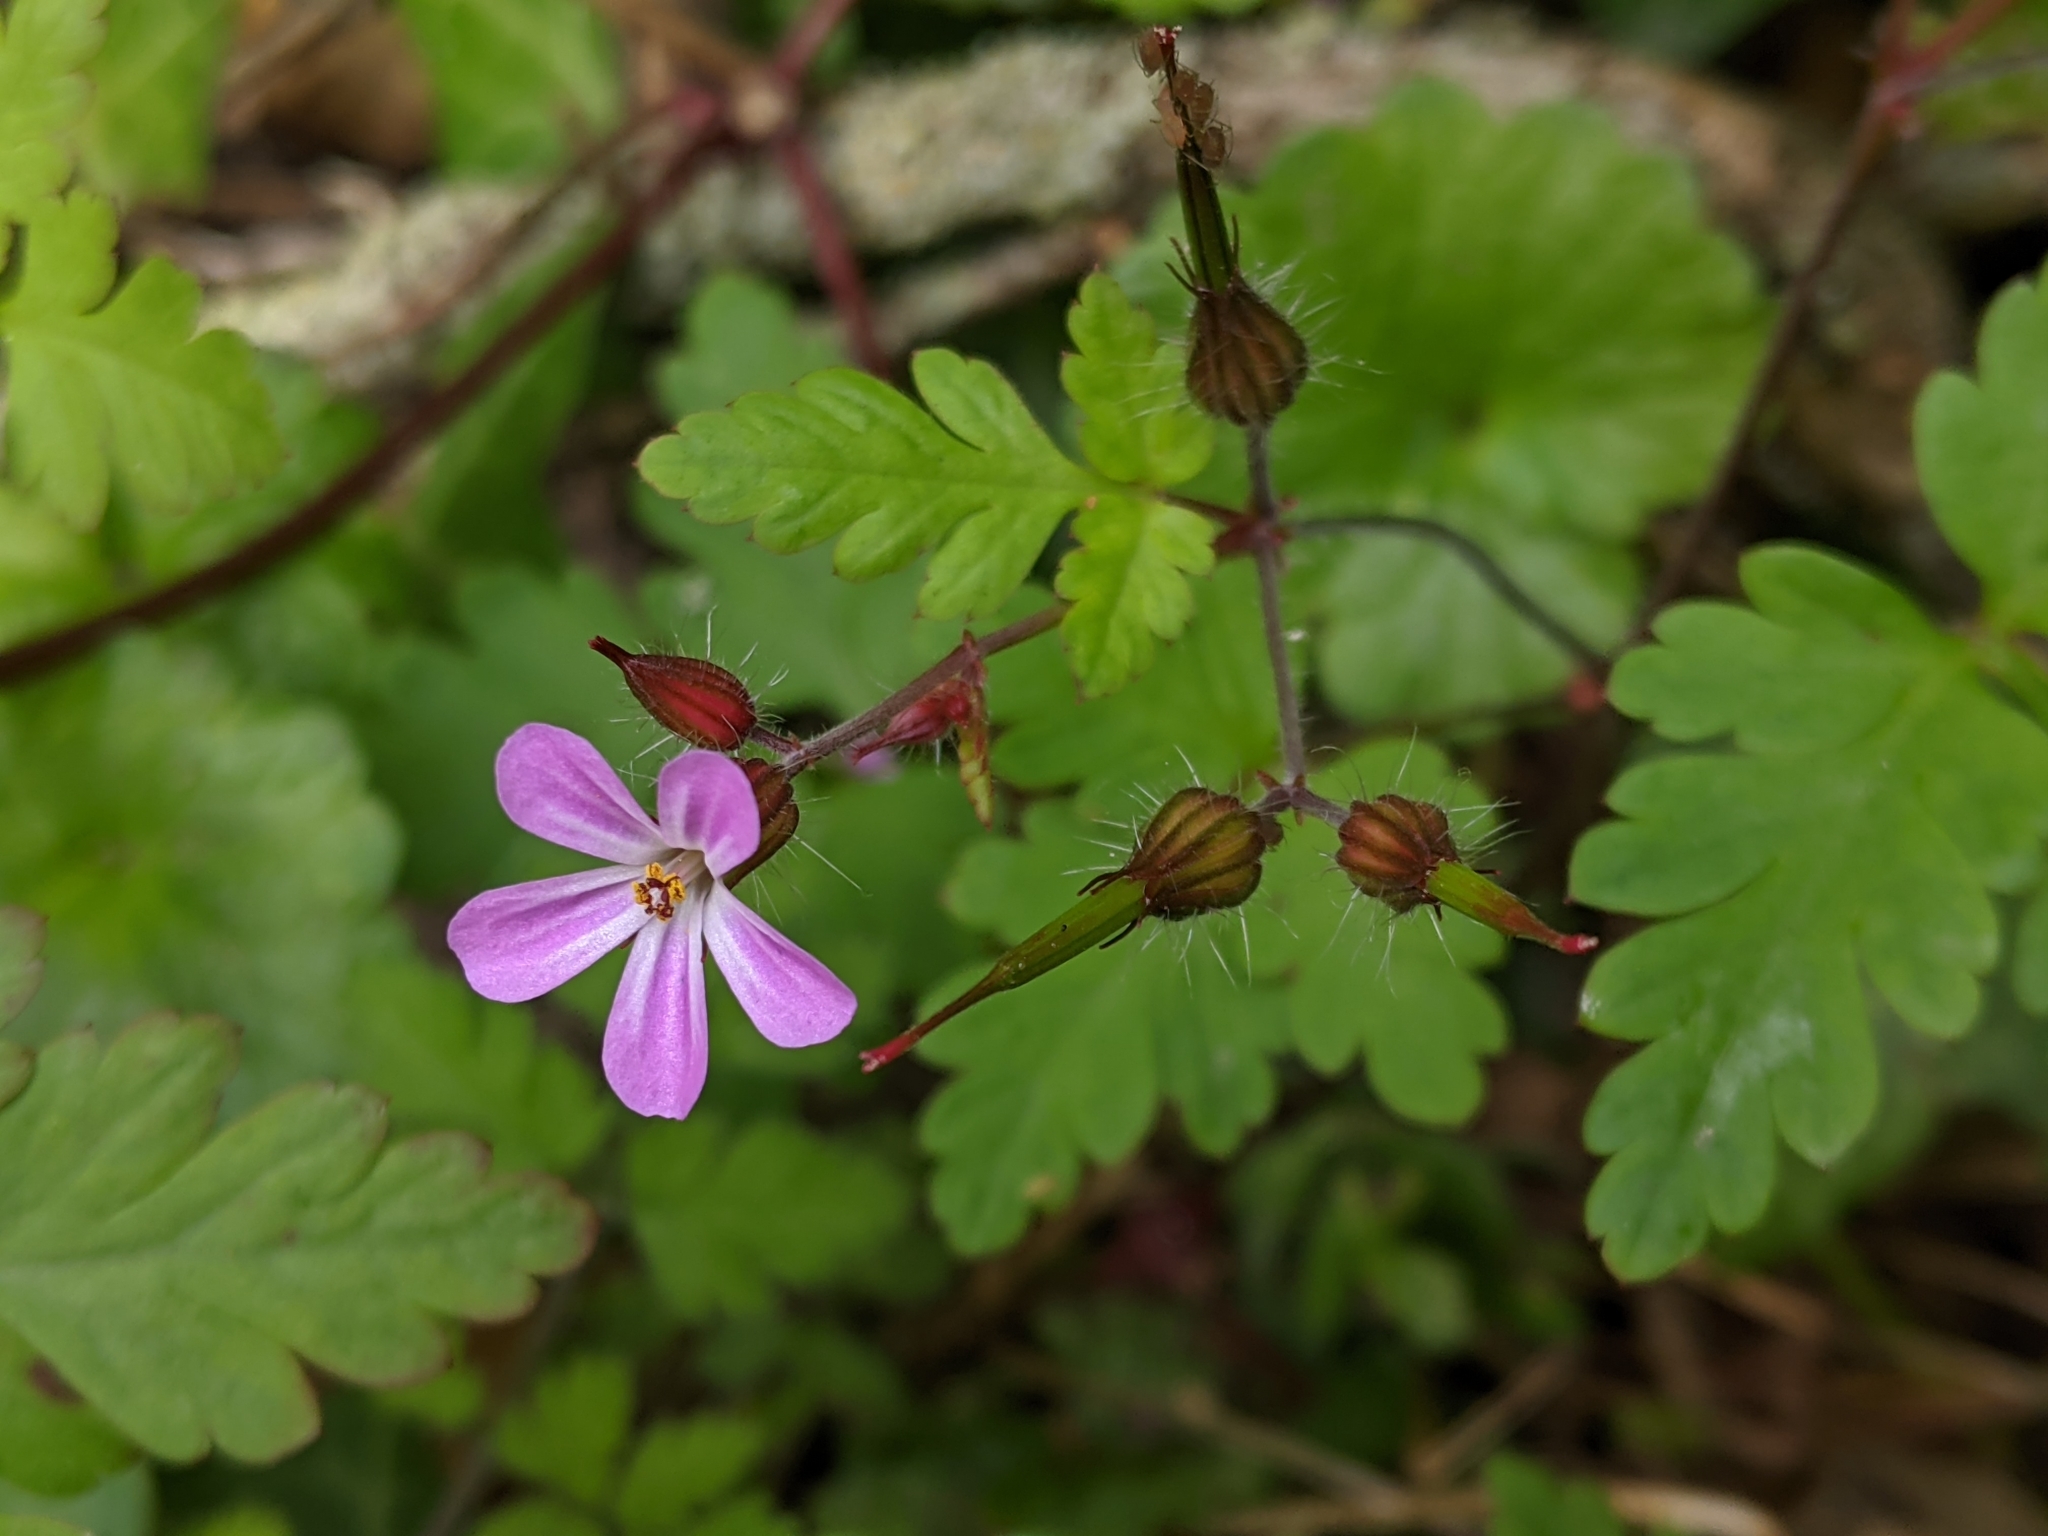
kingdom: Plantae
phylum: Tracheophyta
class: Magnoliopsida
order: Geraniales
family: Geraniaceae
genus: Geranium
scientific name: Geranium robertianum
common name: Herb-robert
